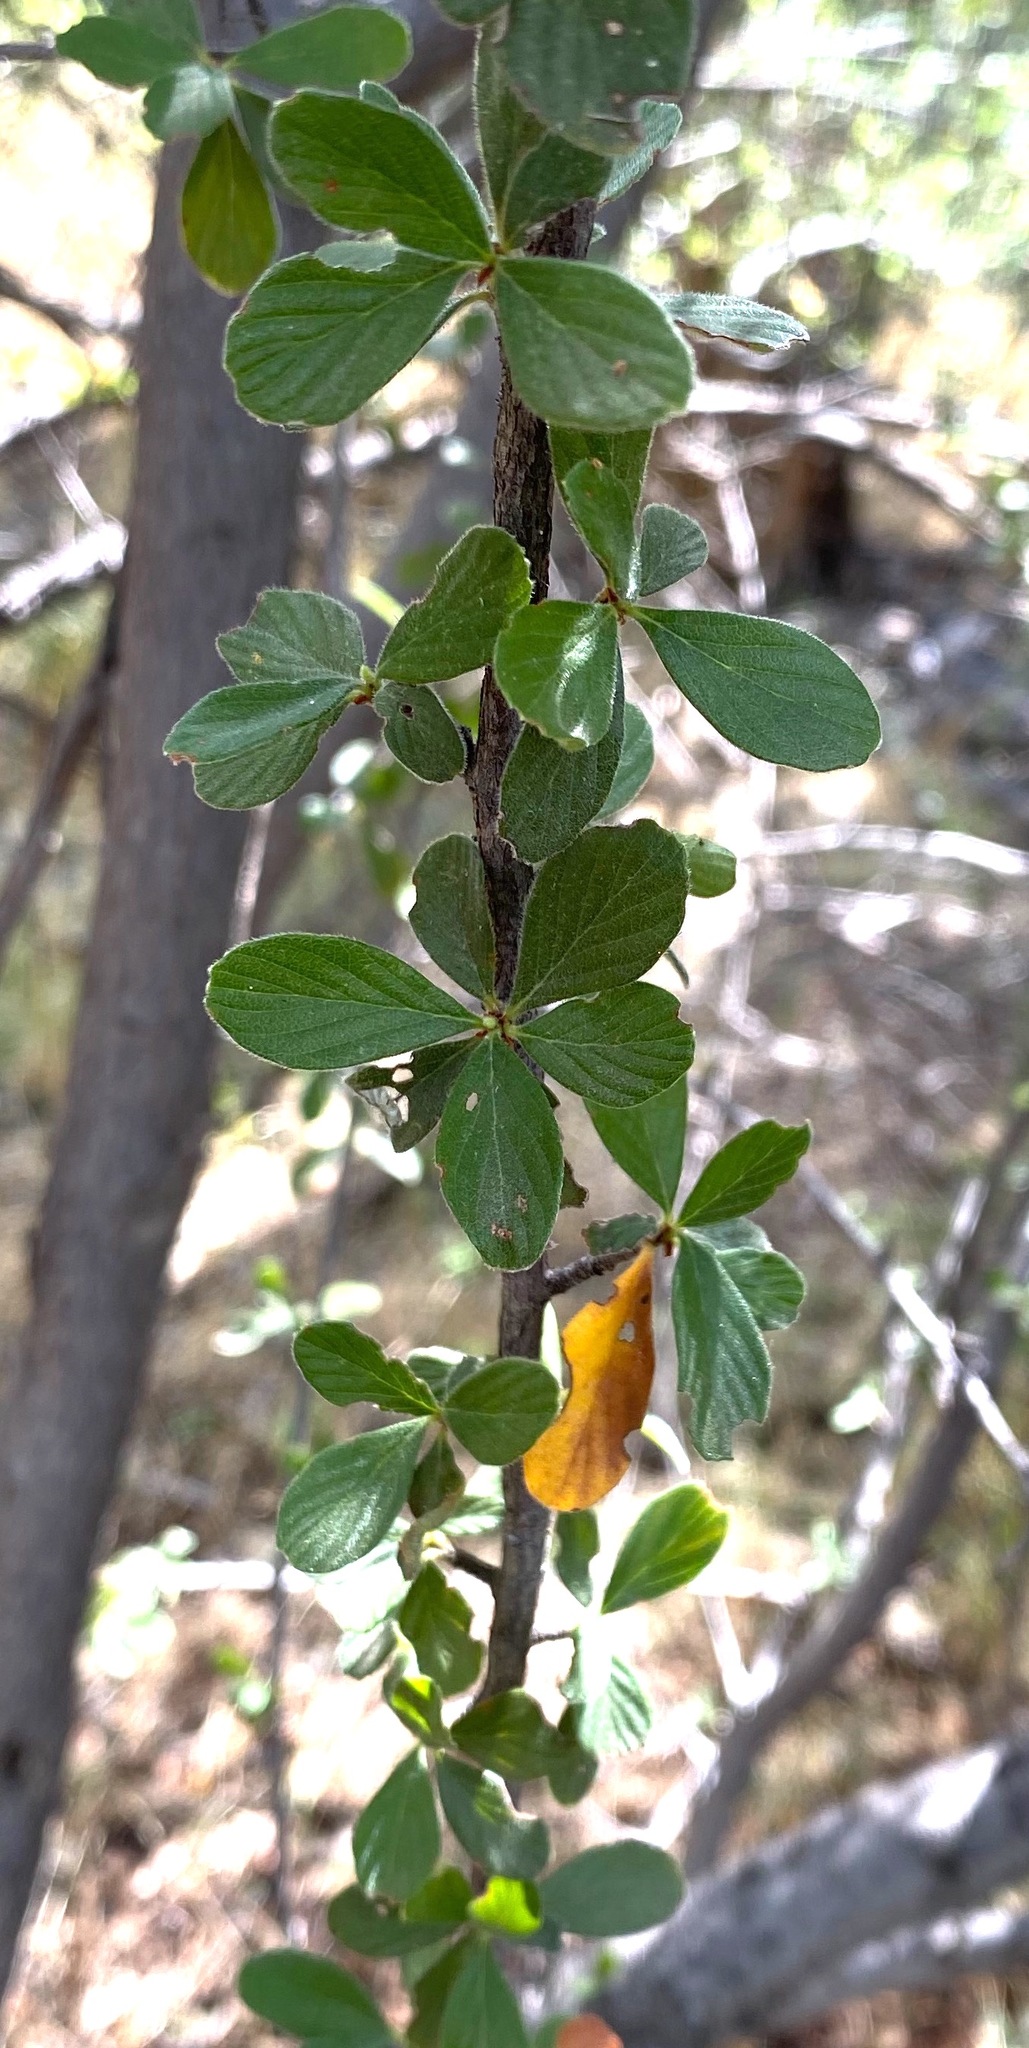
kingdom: Plantae
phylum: Tracheophyta
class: Magnoliopsida
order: Rosales
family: Rosaceae
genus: Cercocarpus
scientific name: Cercocarpus breviflorus
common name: Wright's mountain-mahogany
